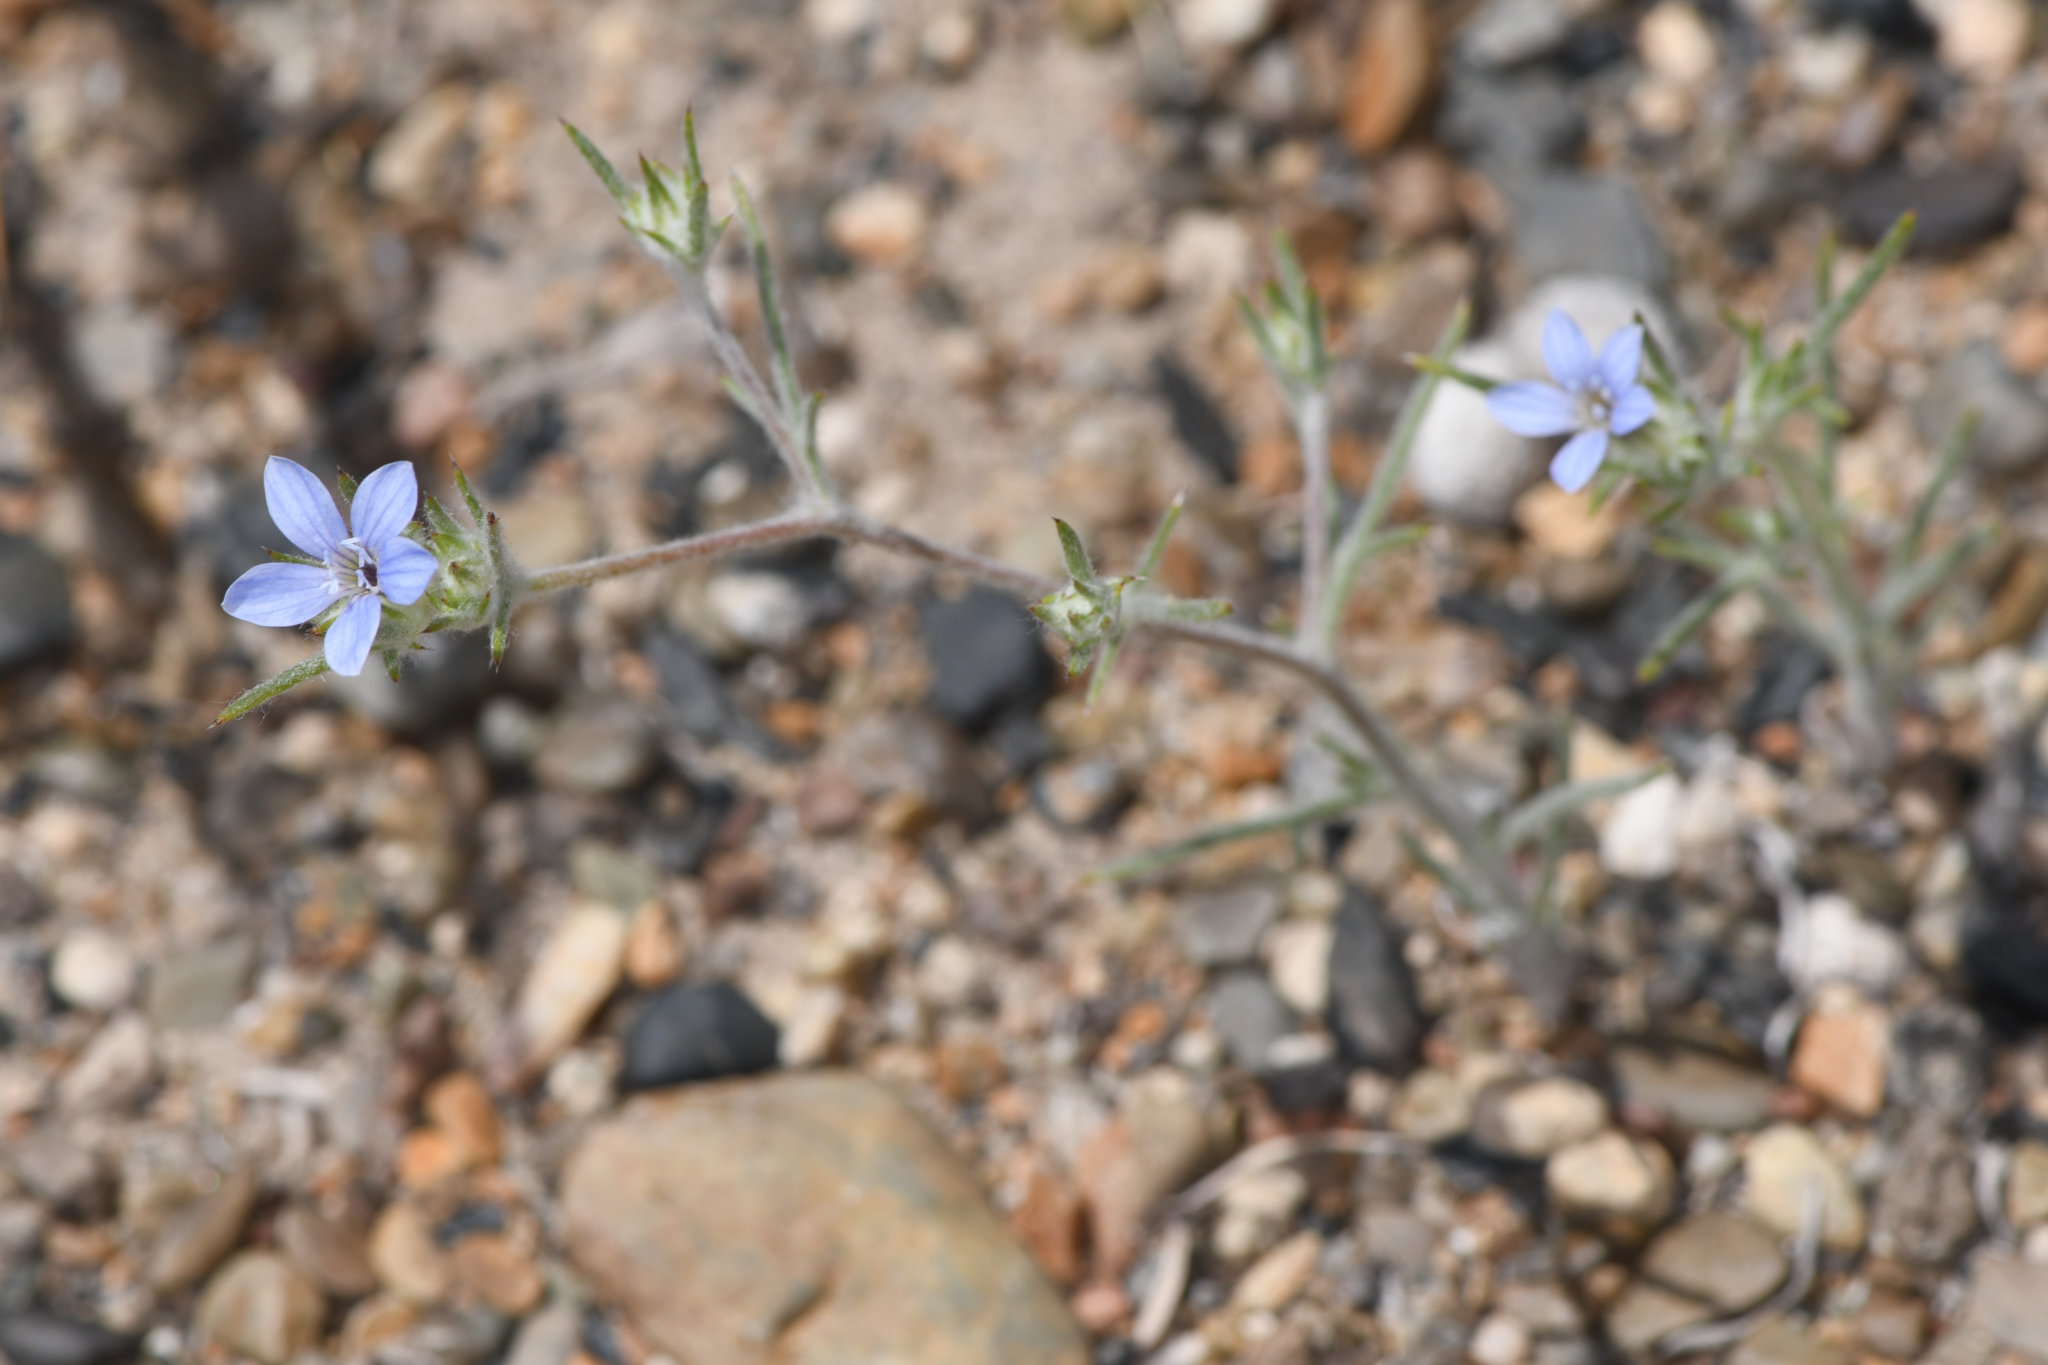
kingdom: Plantae
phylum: Tracheophyta
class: Magnoliopsida
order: Ericales
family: Polemoniaceae
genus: Eriastrum
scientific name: Eriastrum wilcoxii
